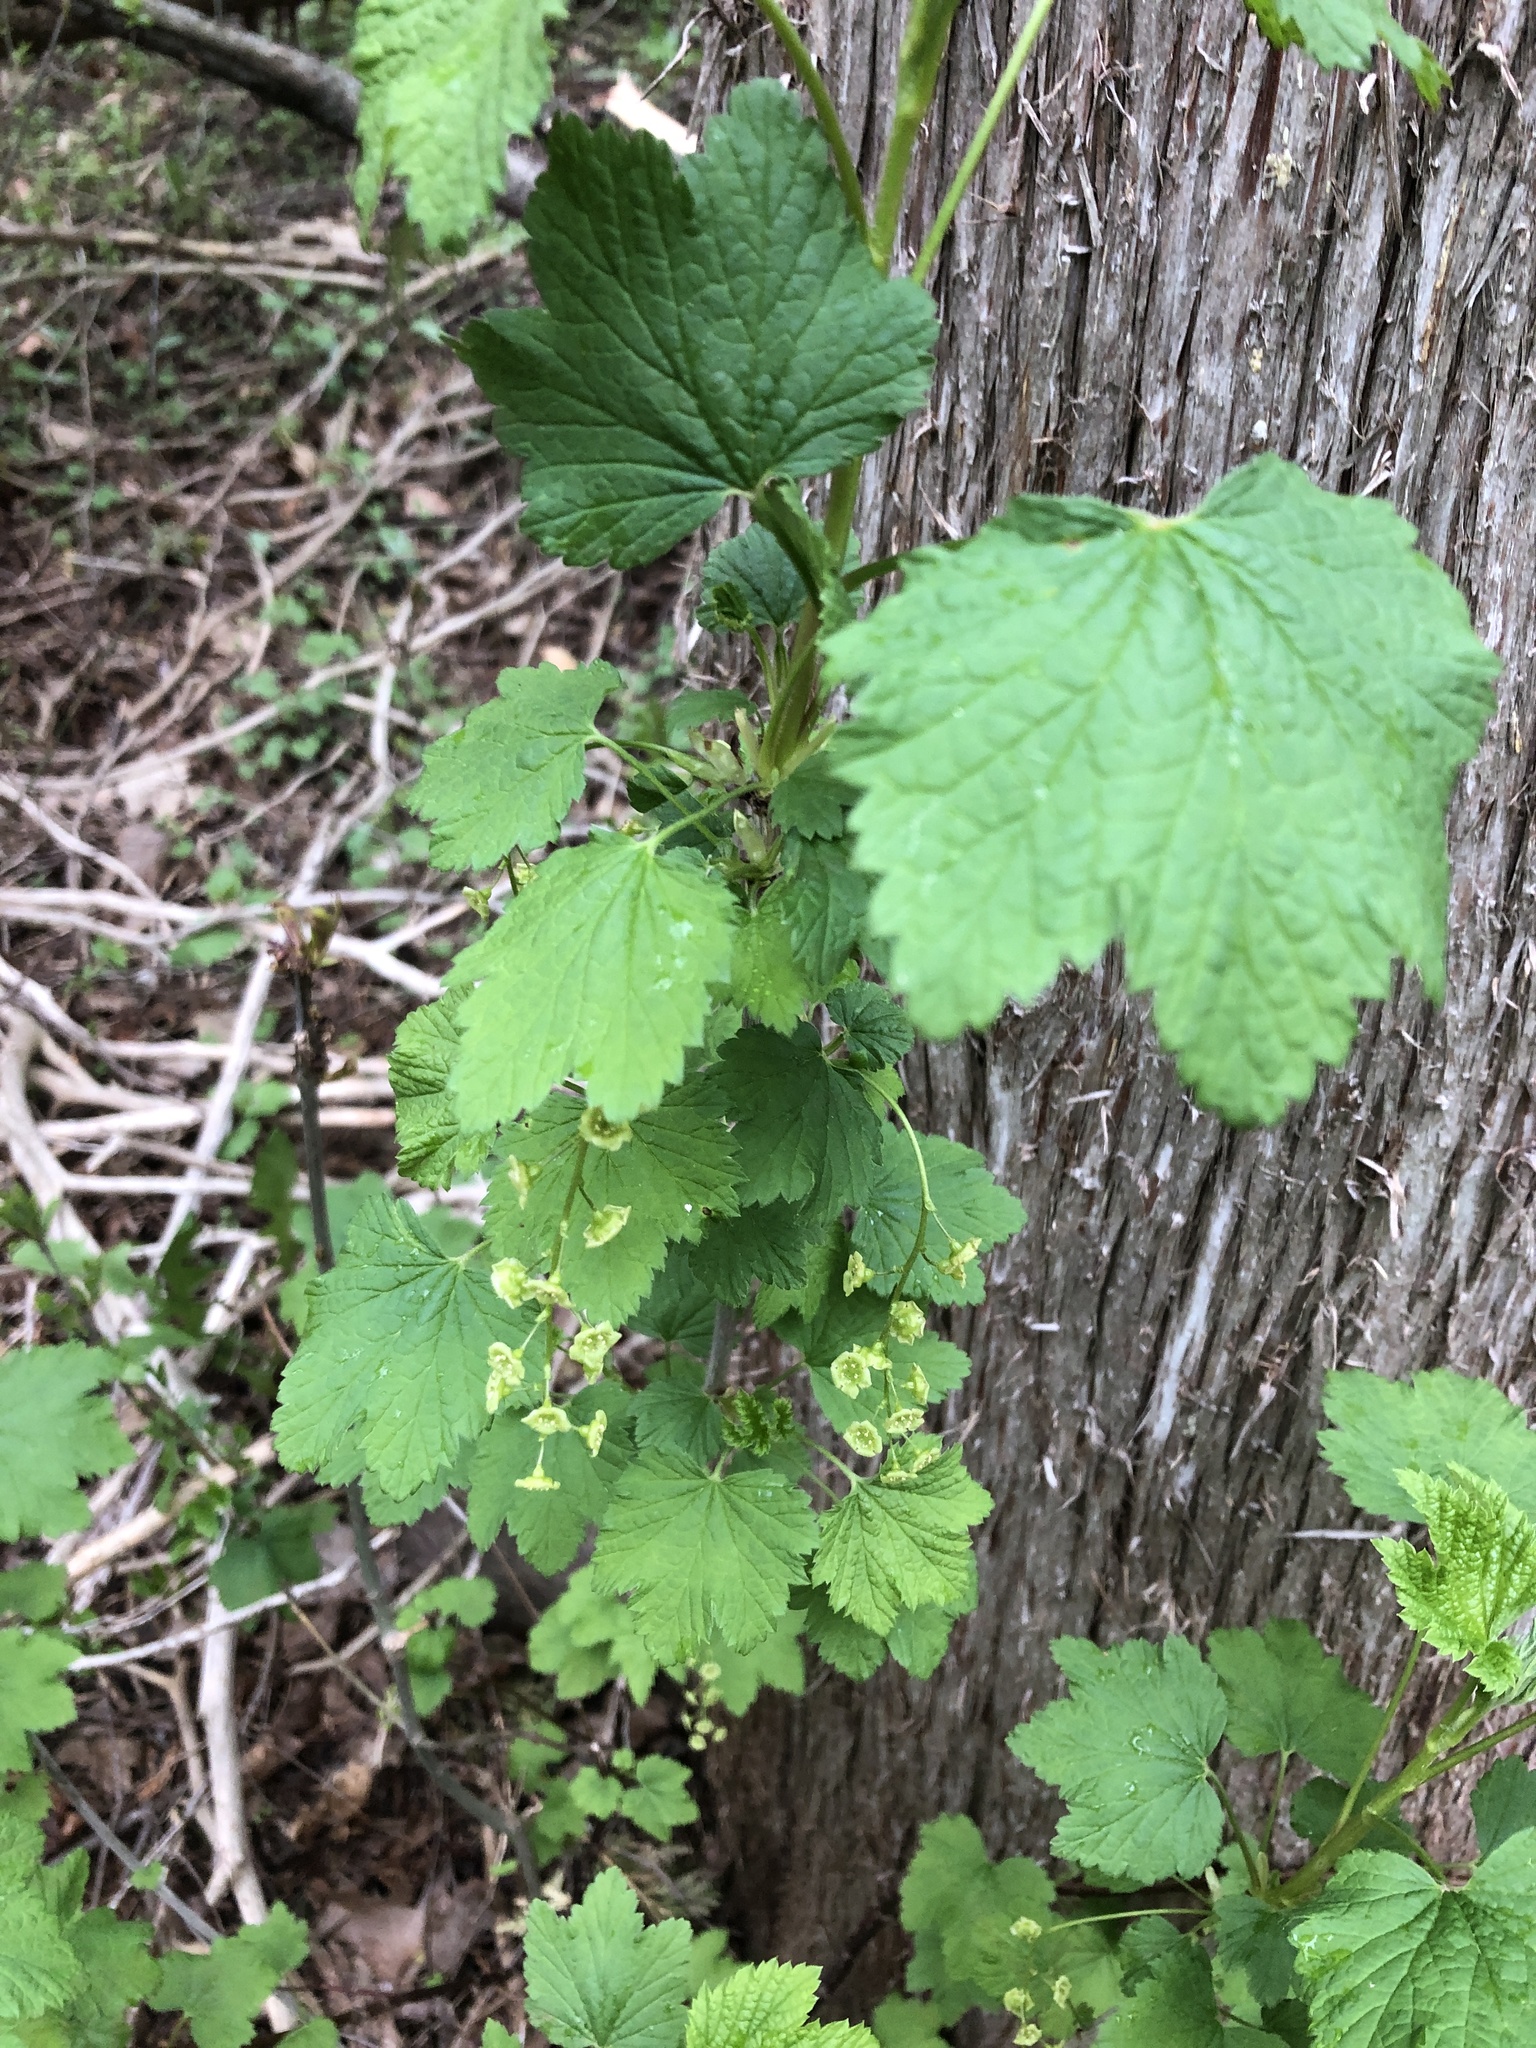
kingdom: Plantae
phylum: Tracheophyta
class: Magnoliopsida
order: Saxifragales
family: Grossulariaceae
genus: Ribes
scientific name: Ribes rubrum
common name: Red currant
